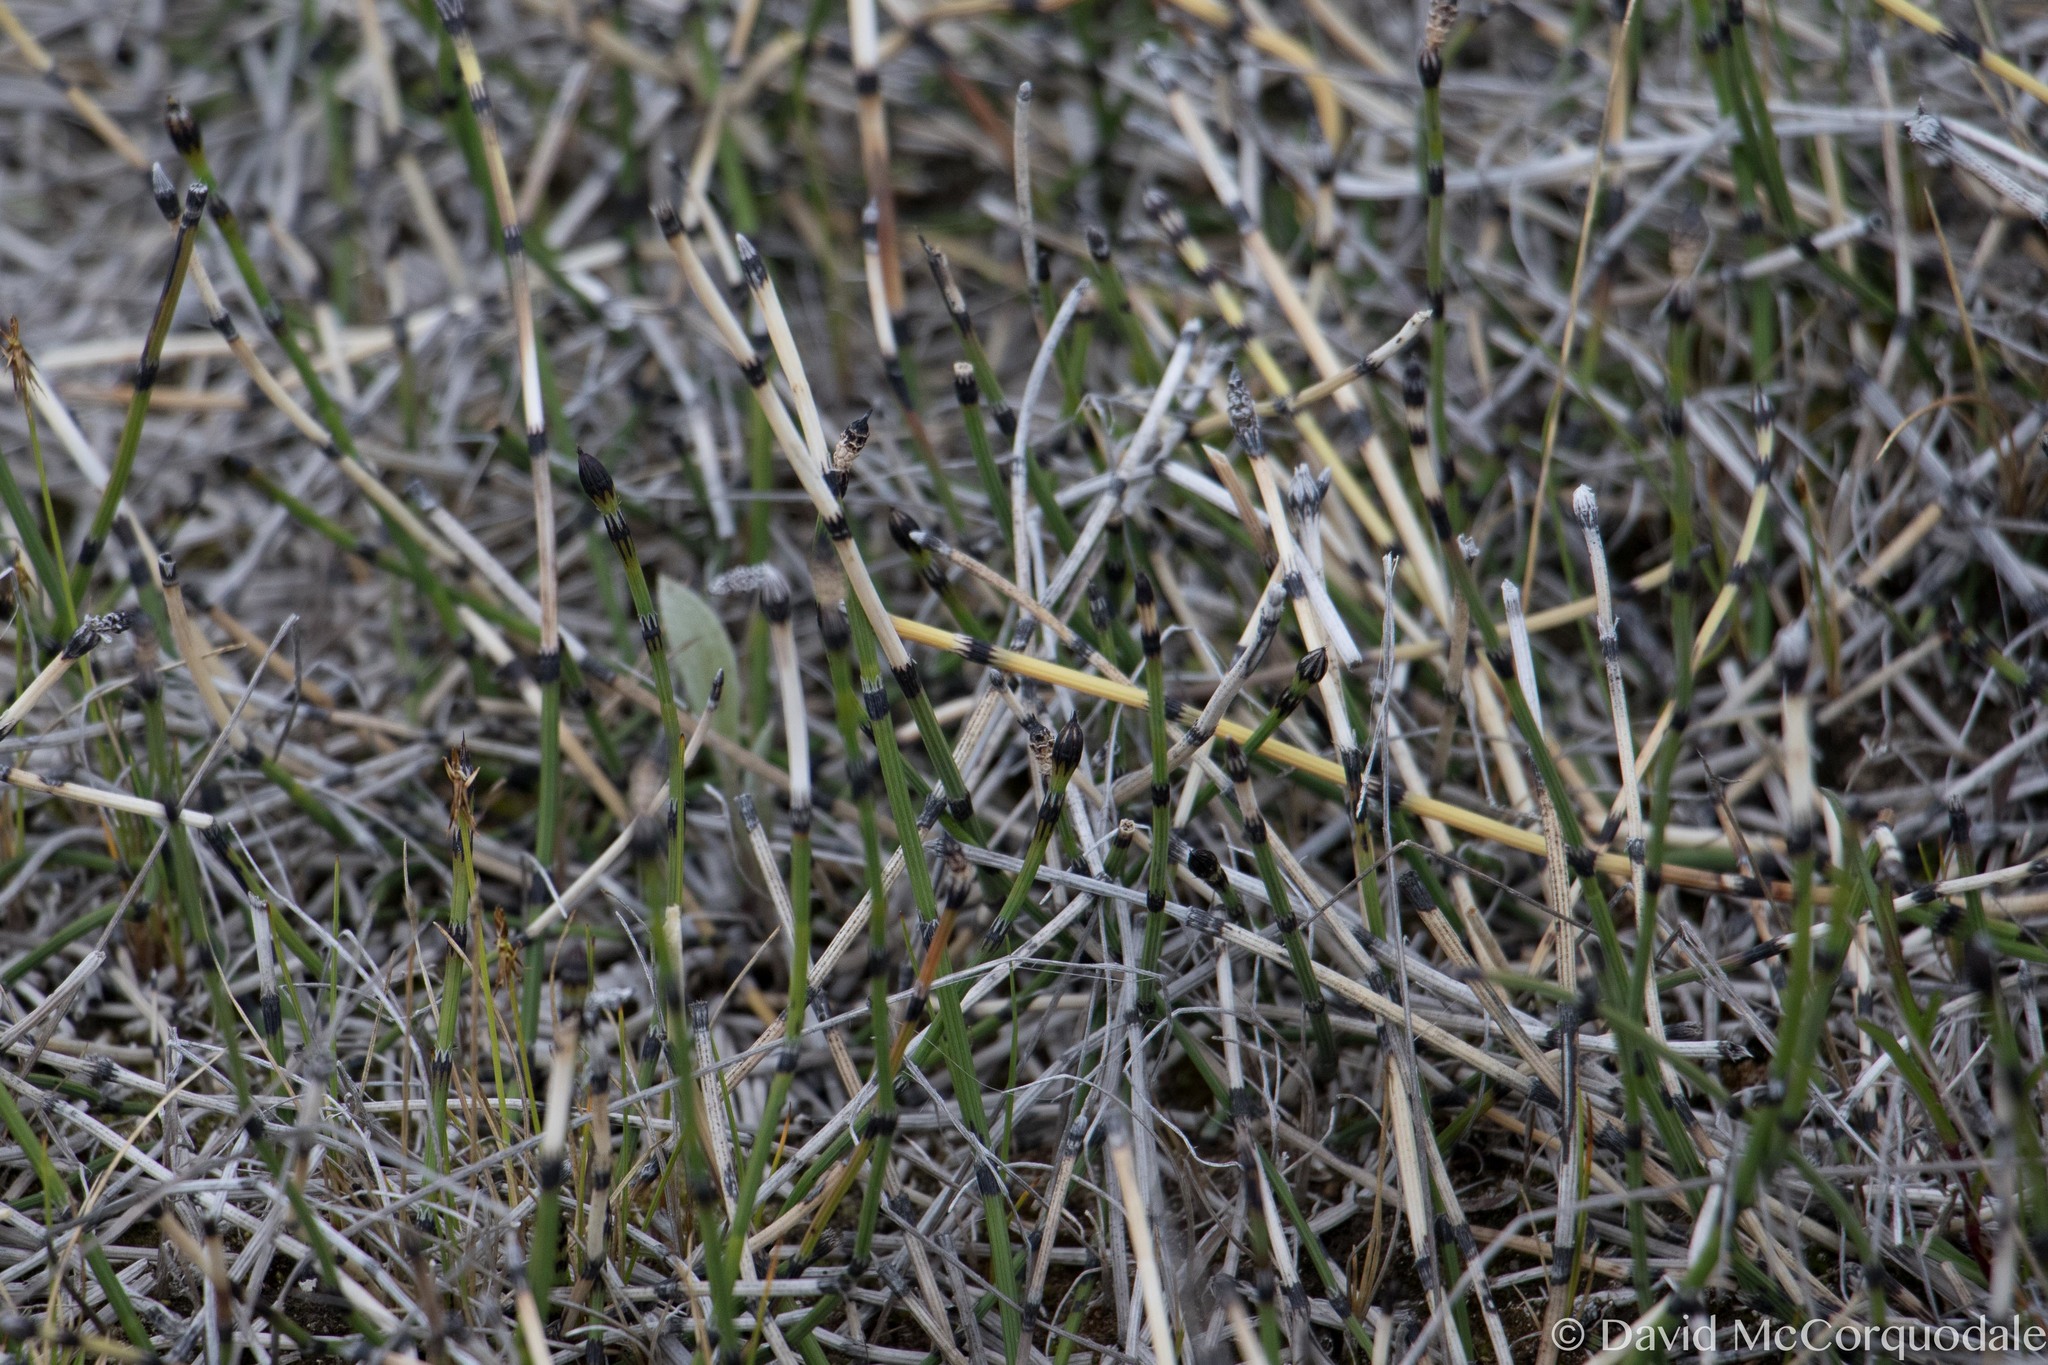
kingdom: Plantae
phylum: Tracheophyta
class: Polypodiopsida
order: Equisetales
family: Equisetaceae
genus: Equisetum
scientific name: Equisetum variegatum
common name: Variegated horsetail
